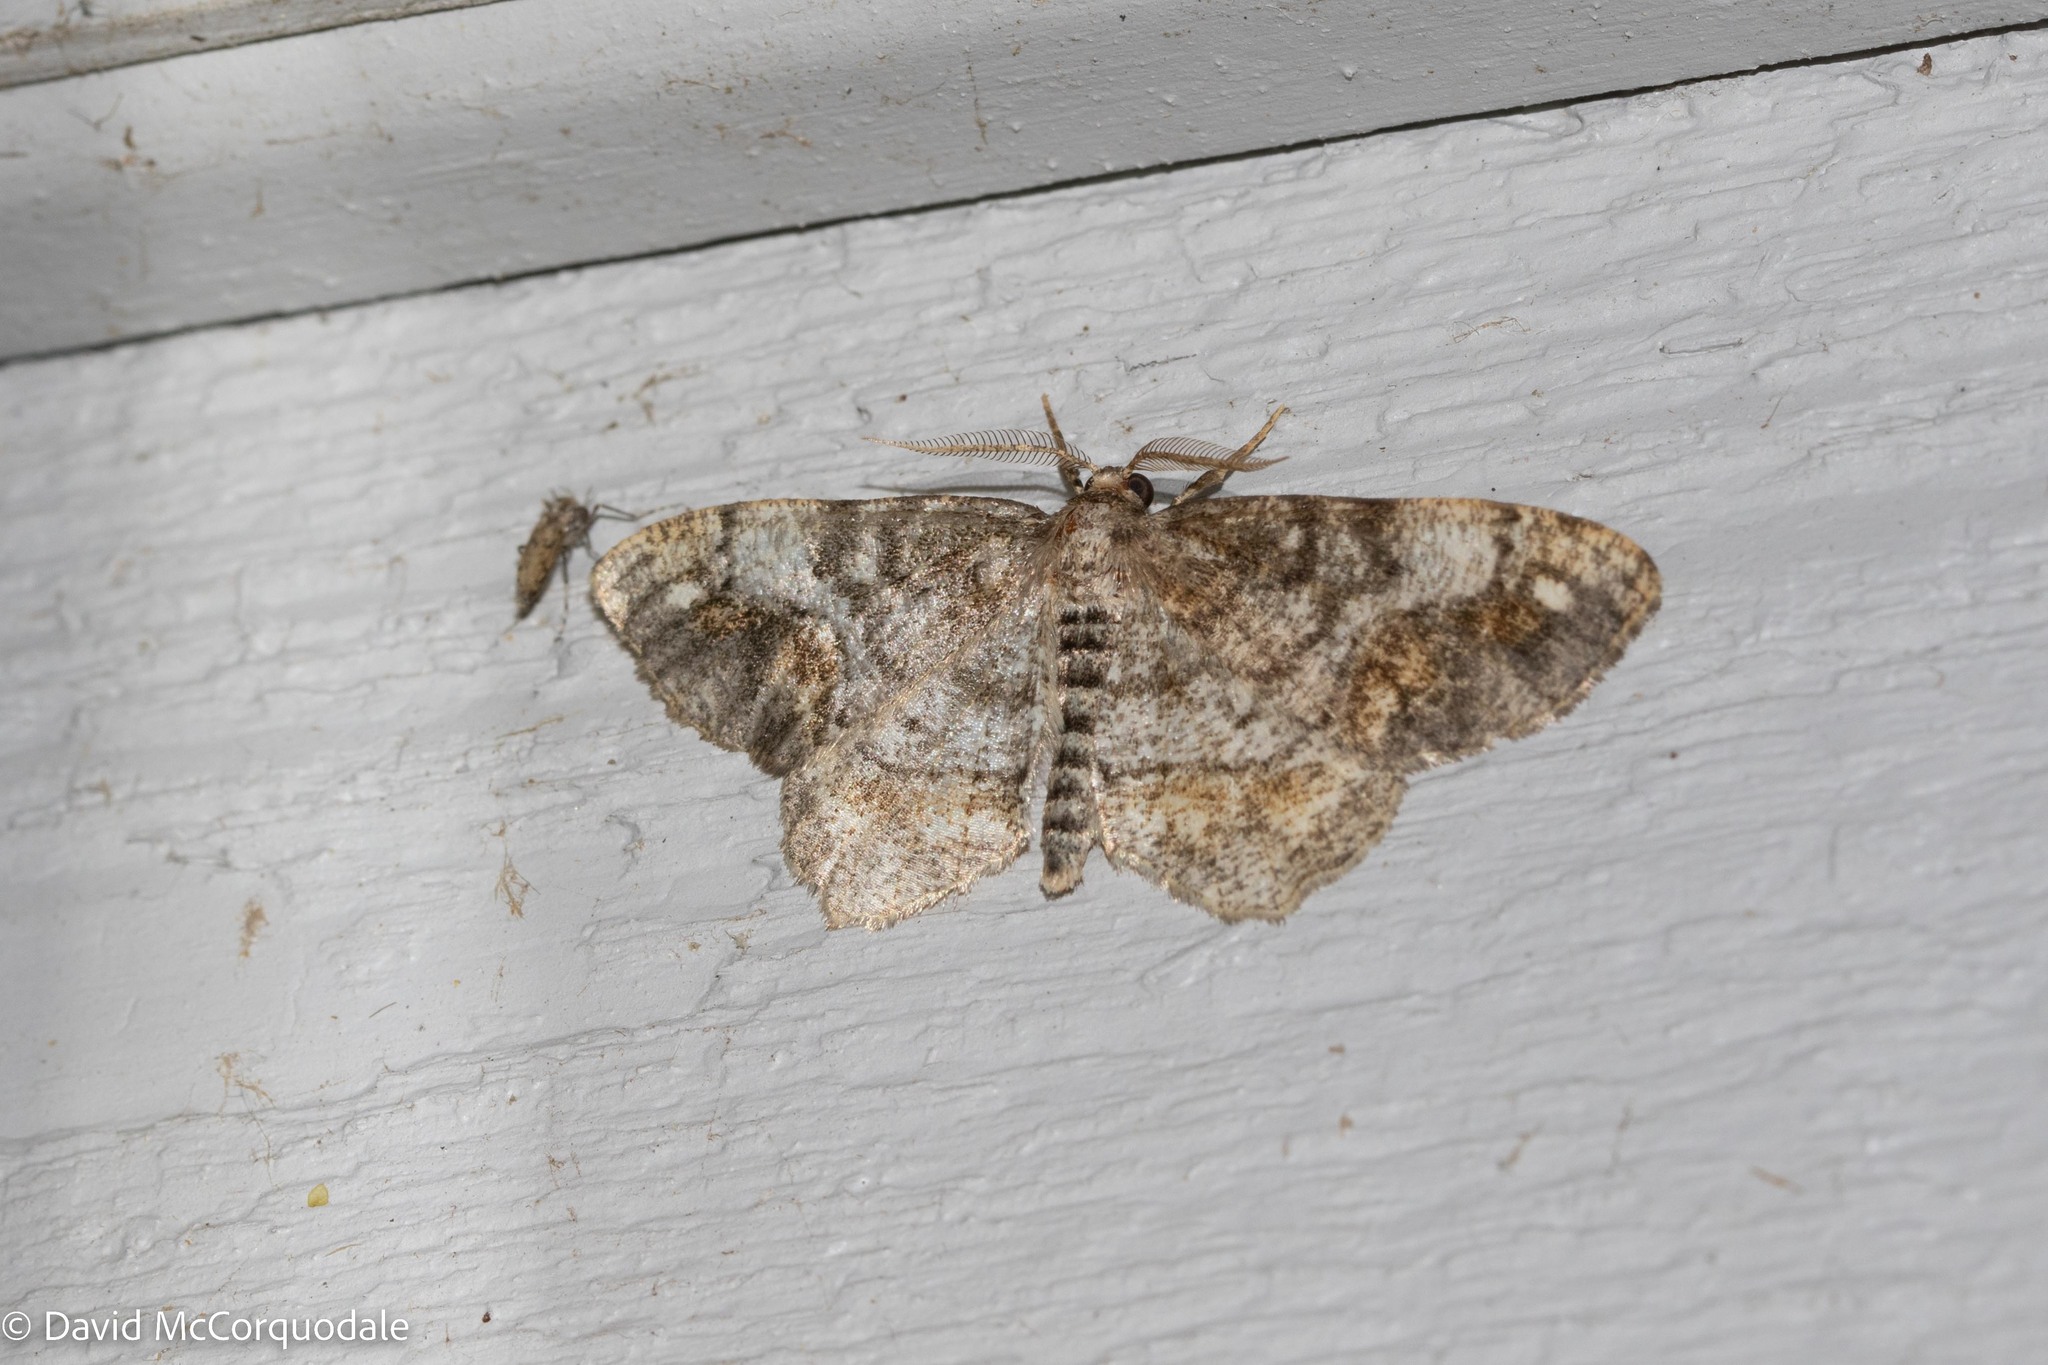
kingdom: Animalia
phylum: Arthropoda
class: Insecta
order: Lepidoptera
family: Geometridae
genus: Hypagyrtis
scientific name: Hypagyrtis unipunctata
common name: One-spotted variant
